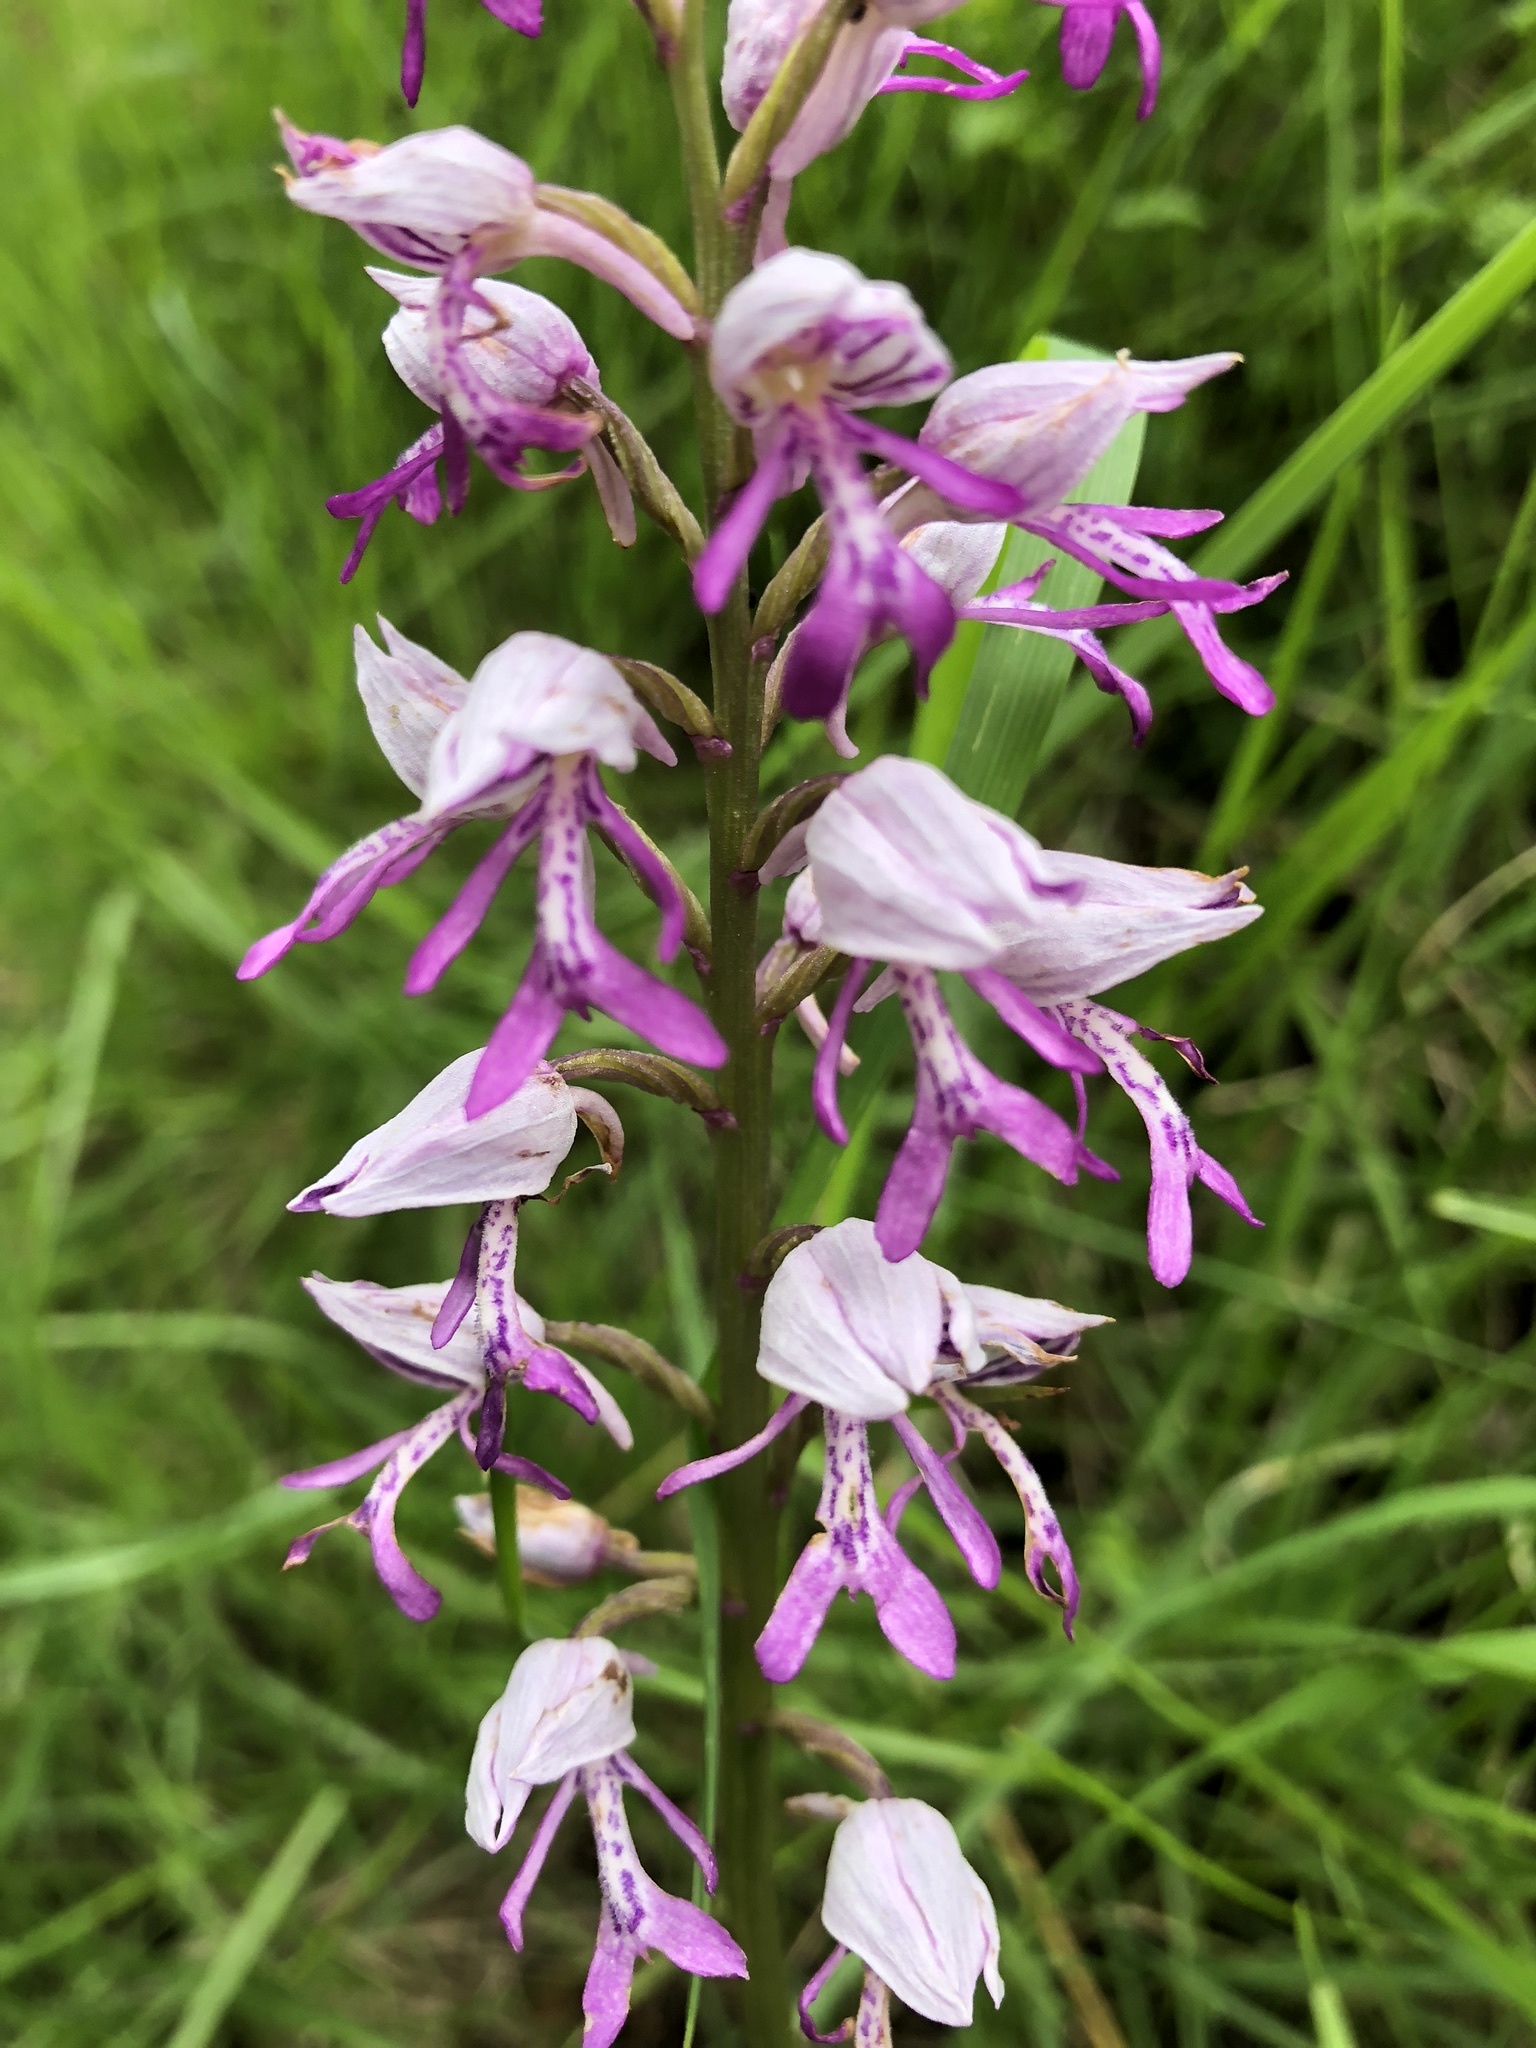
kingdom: Plantae
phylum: Tracheophyta
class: Liliopsida
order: Asparagales
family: Orchidaceae
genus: Orchis
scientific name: Orchis militaris
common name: Military orchid
